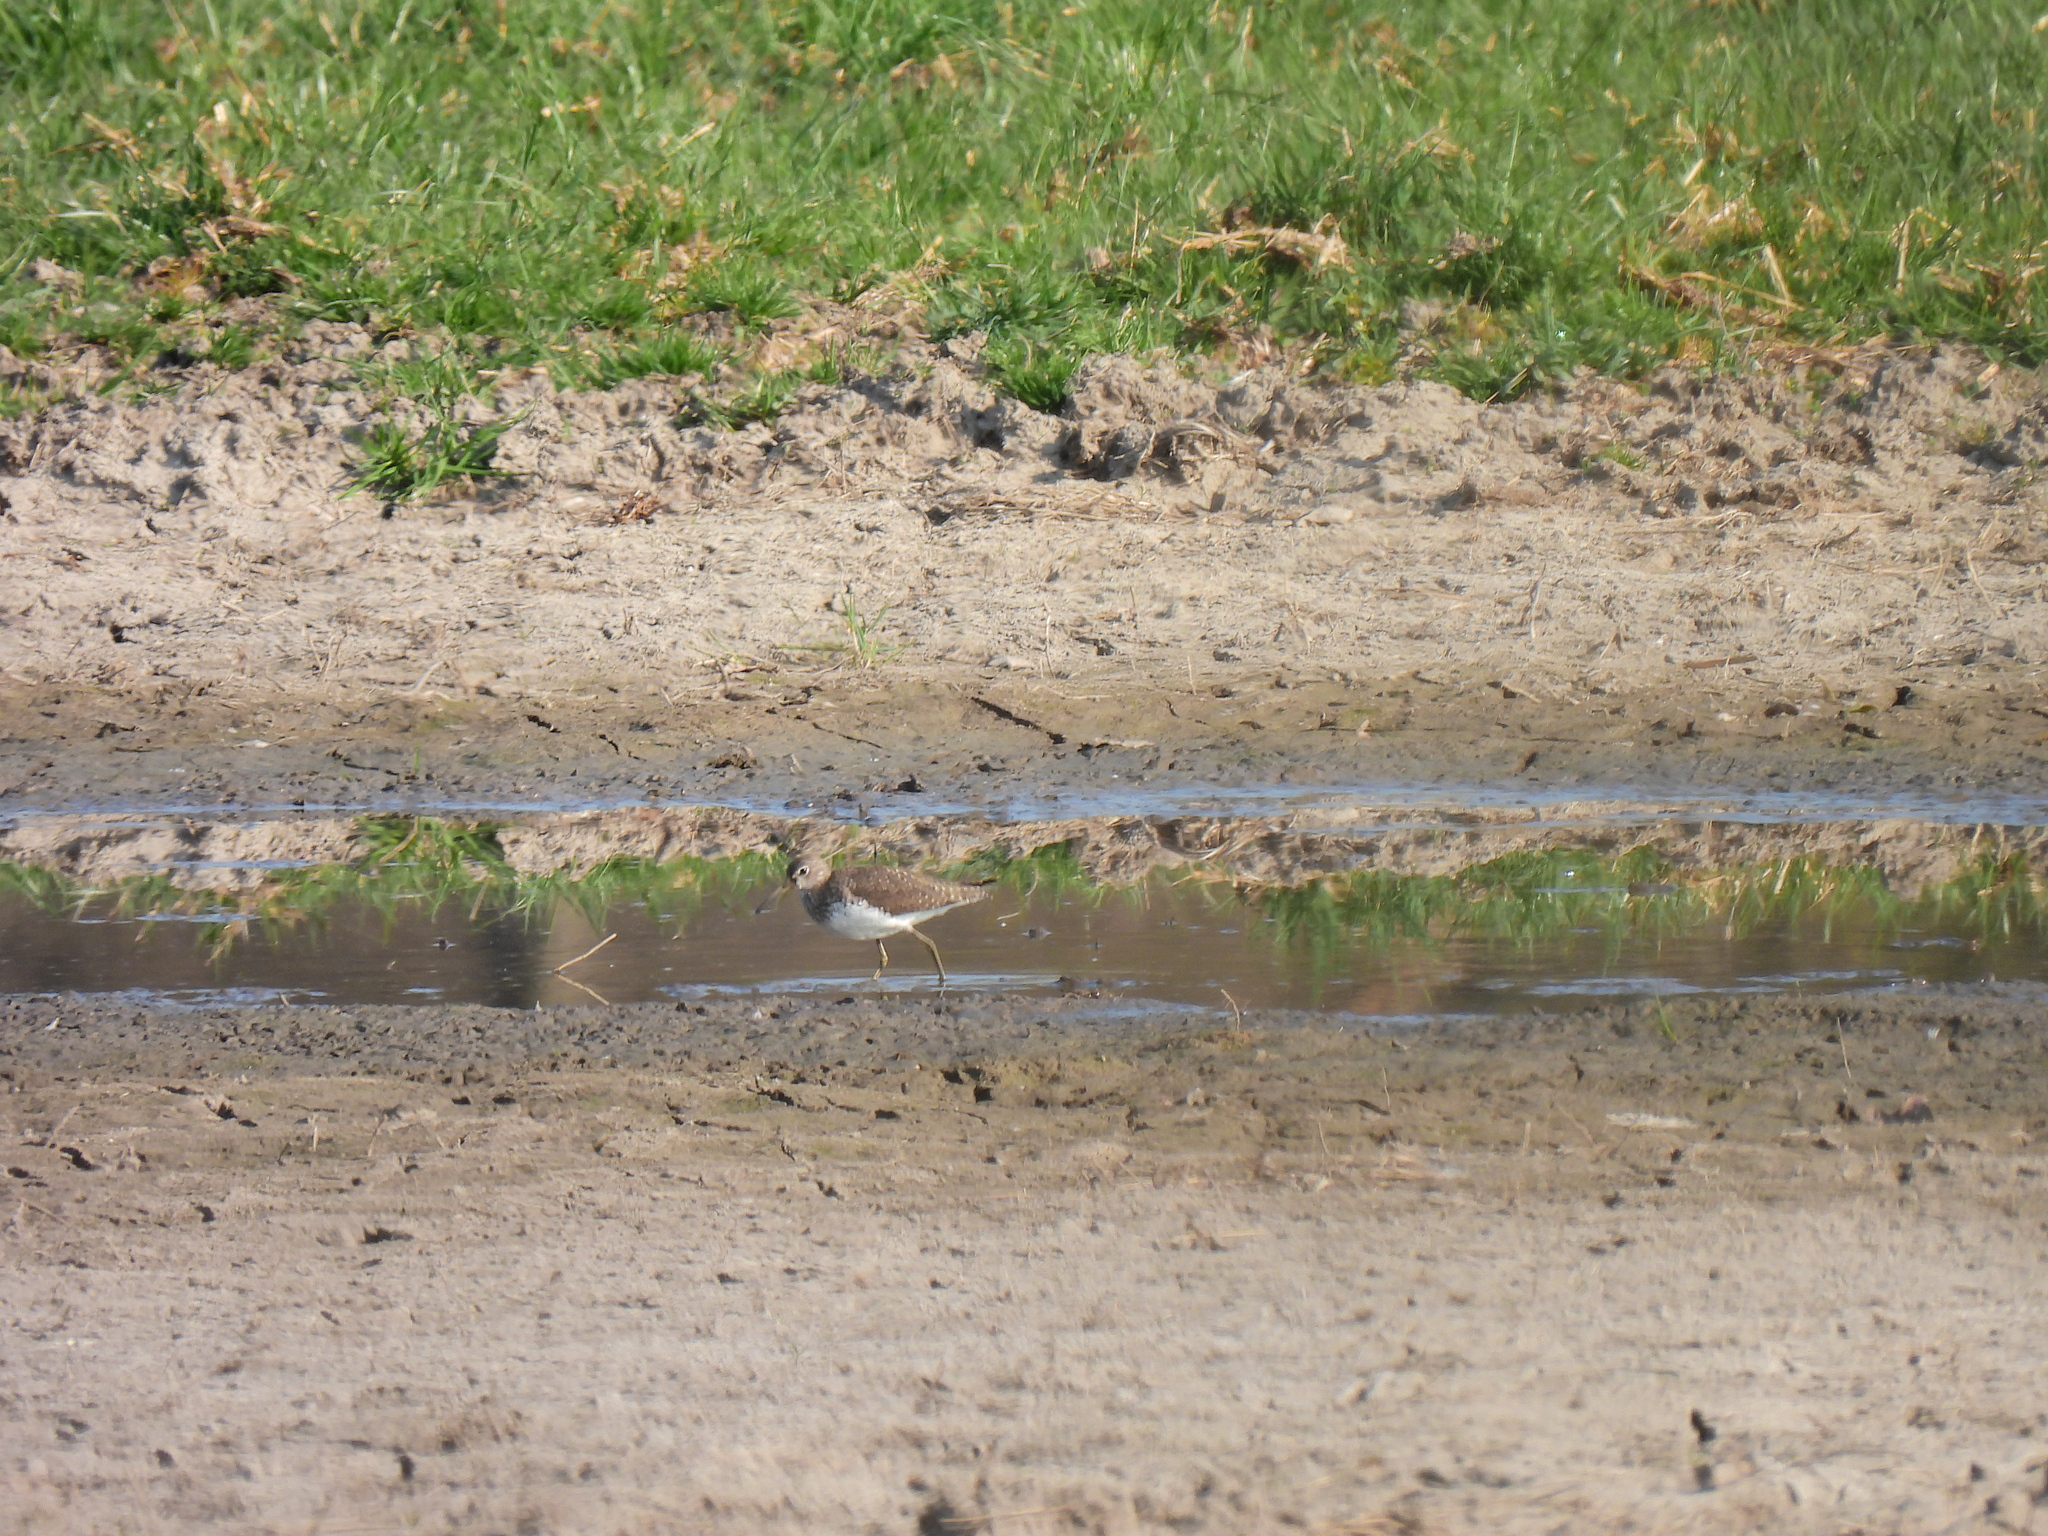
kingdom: Animalia
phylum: Chordata
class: Aves
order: Charadriiformes
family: Scolopacidae
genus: Tringa
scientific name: Tringa ochropus
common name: Green sandpiper
